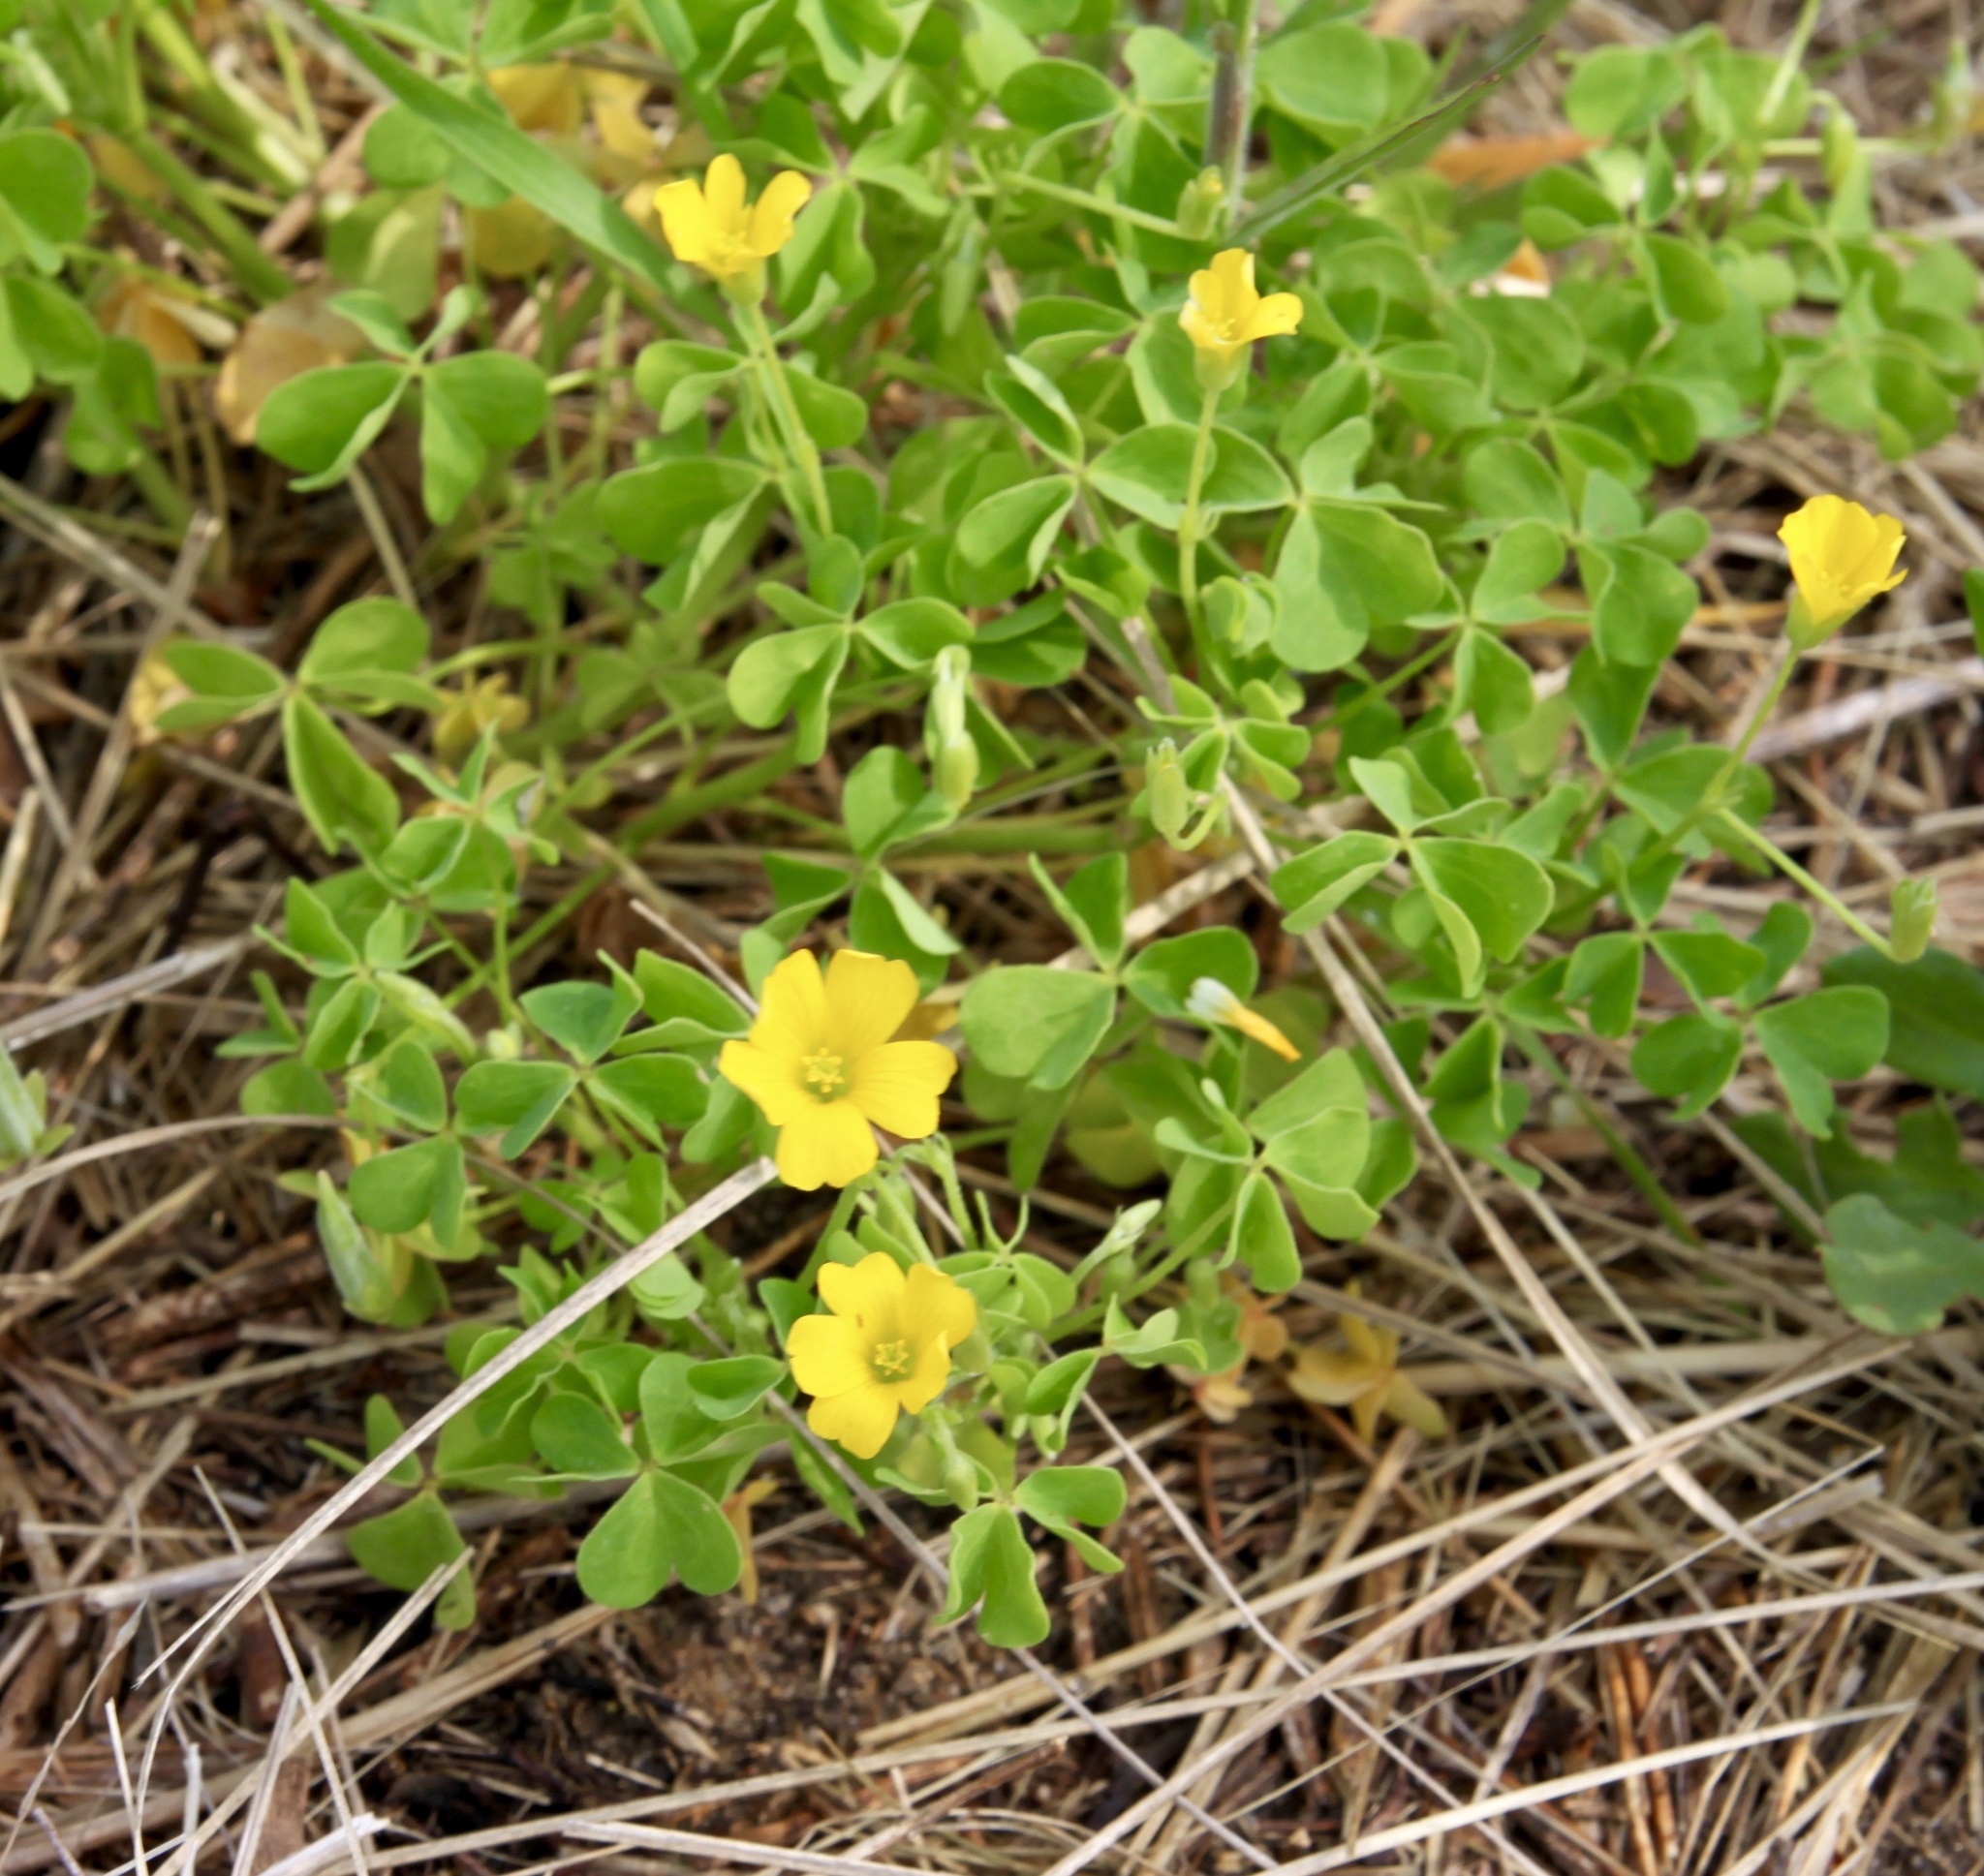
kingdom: Plantae
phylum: Tracheophyta
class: Magnoliopsida
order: Oxalidales
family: Oxalidaceae
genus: Oxalis
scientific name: Oxalis dillenii
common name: Sussex yellow-sorrel
